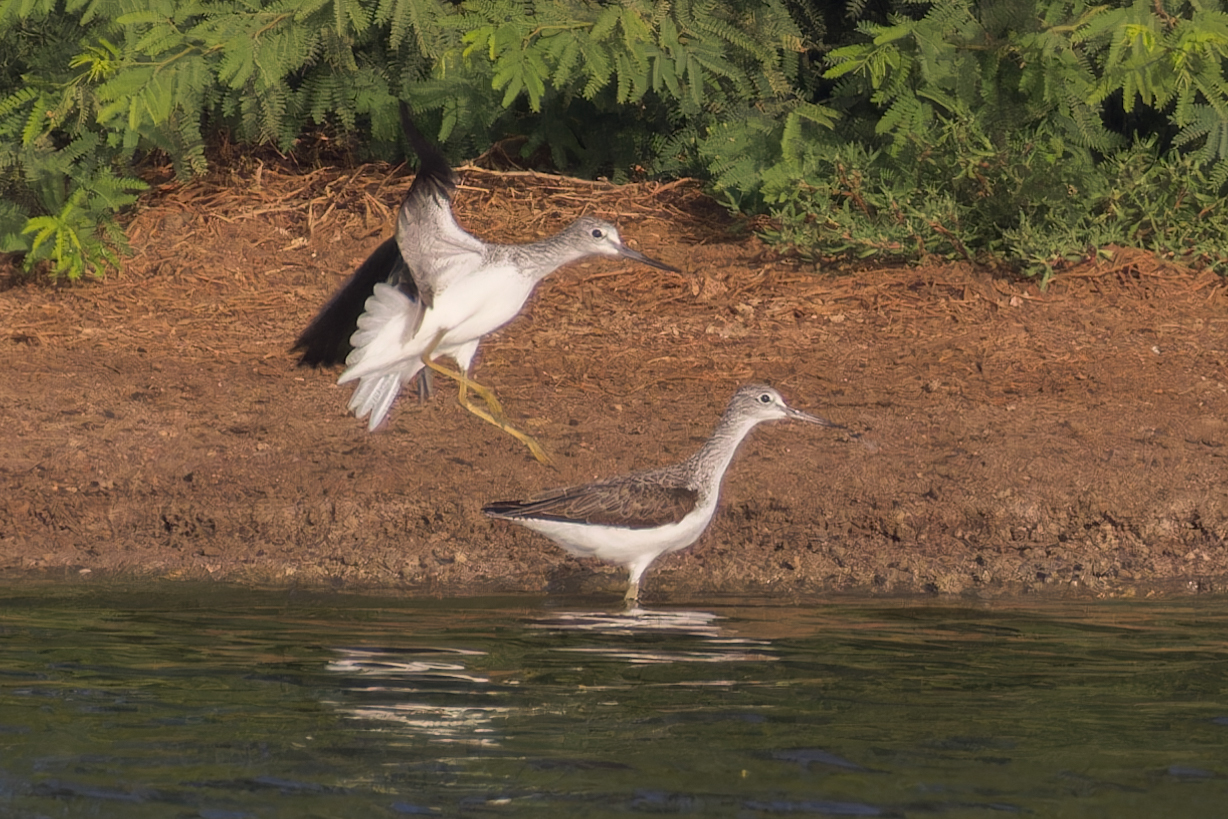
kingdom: Animalia
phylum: Chordata
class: Aves
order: Charadriiformes
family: Scolopacidae
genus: Tringa
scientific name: Tringa nebularia
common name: Common greenshank
